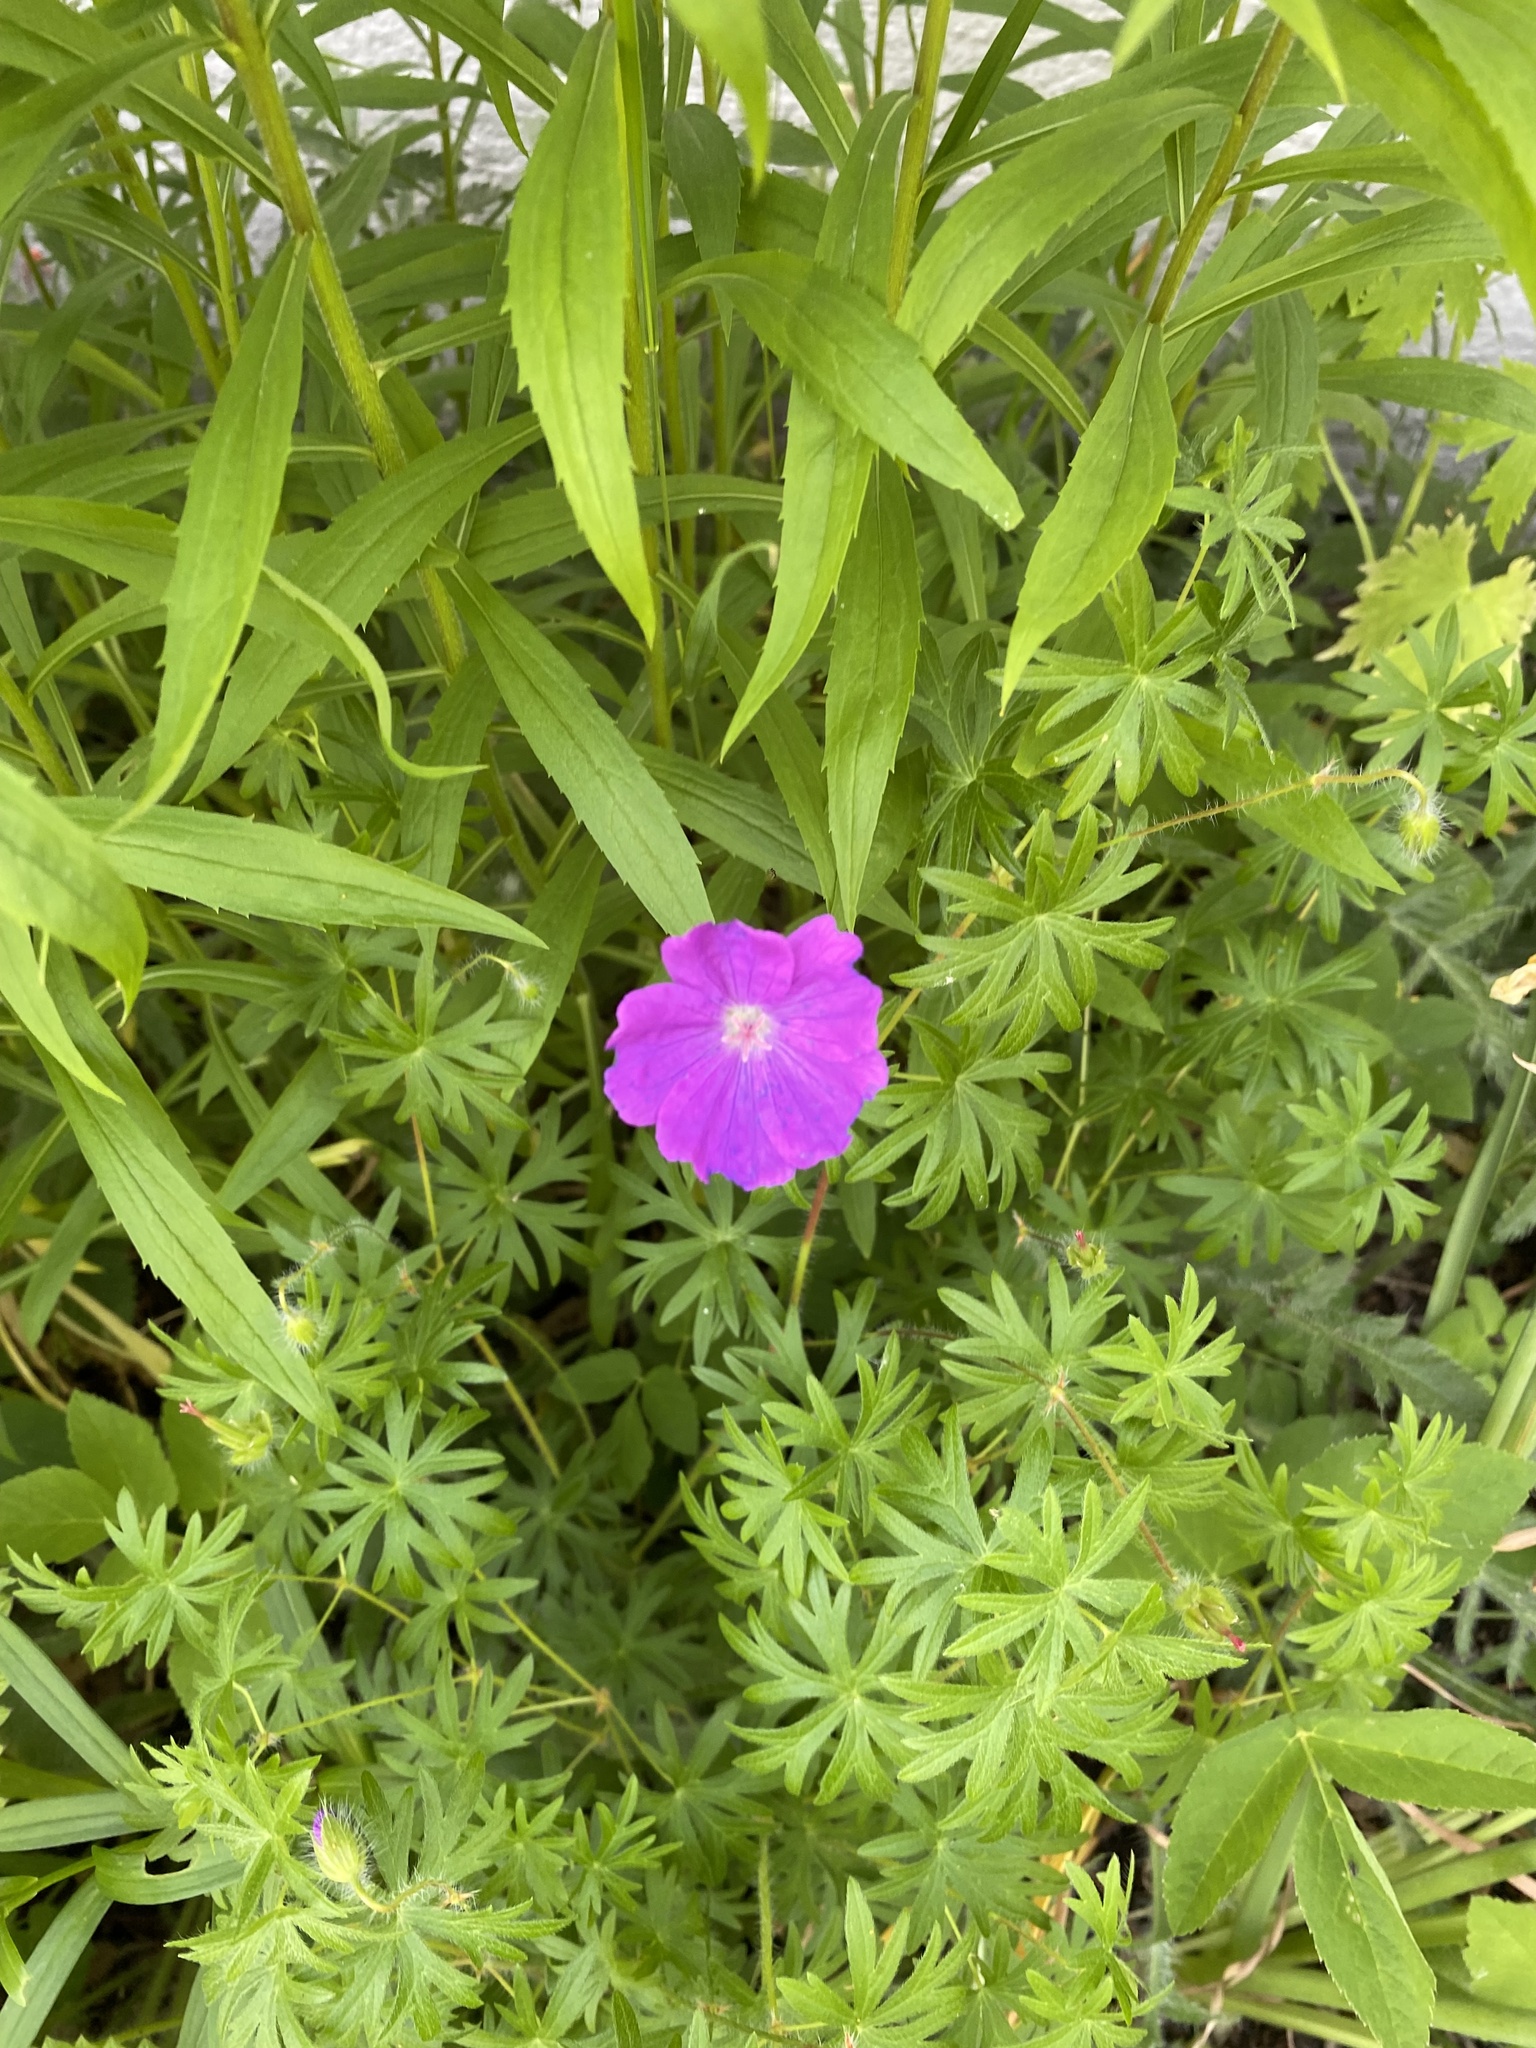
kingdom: Plantae
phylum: Tracheophyta
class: Magnoliopsida
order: Geraniales
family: Geraniaceae
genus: Geranium
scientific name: Geranium sanguineum
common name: Bloody crane's-bill
